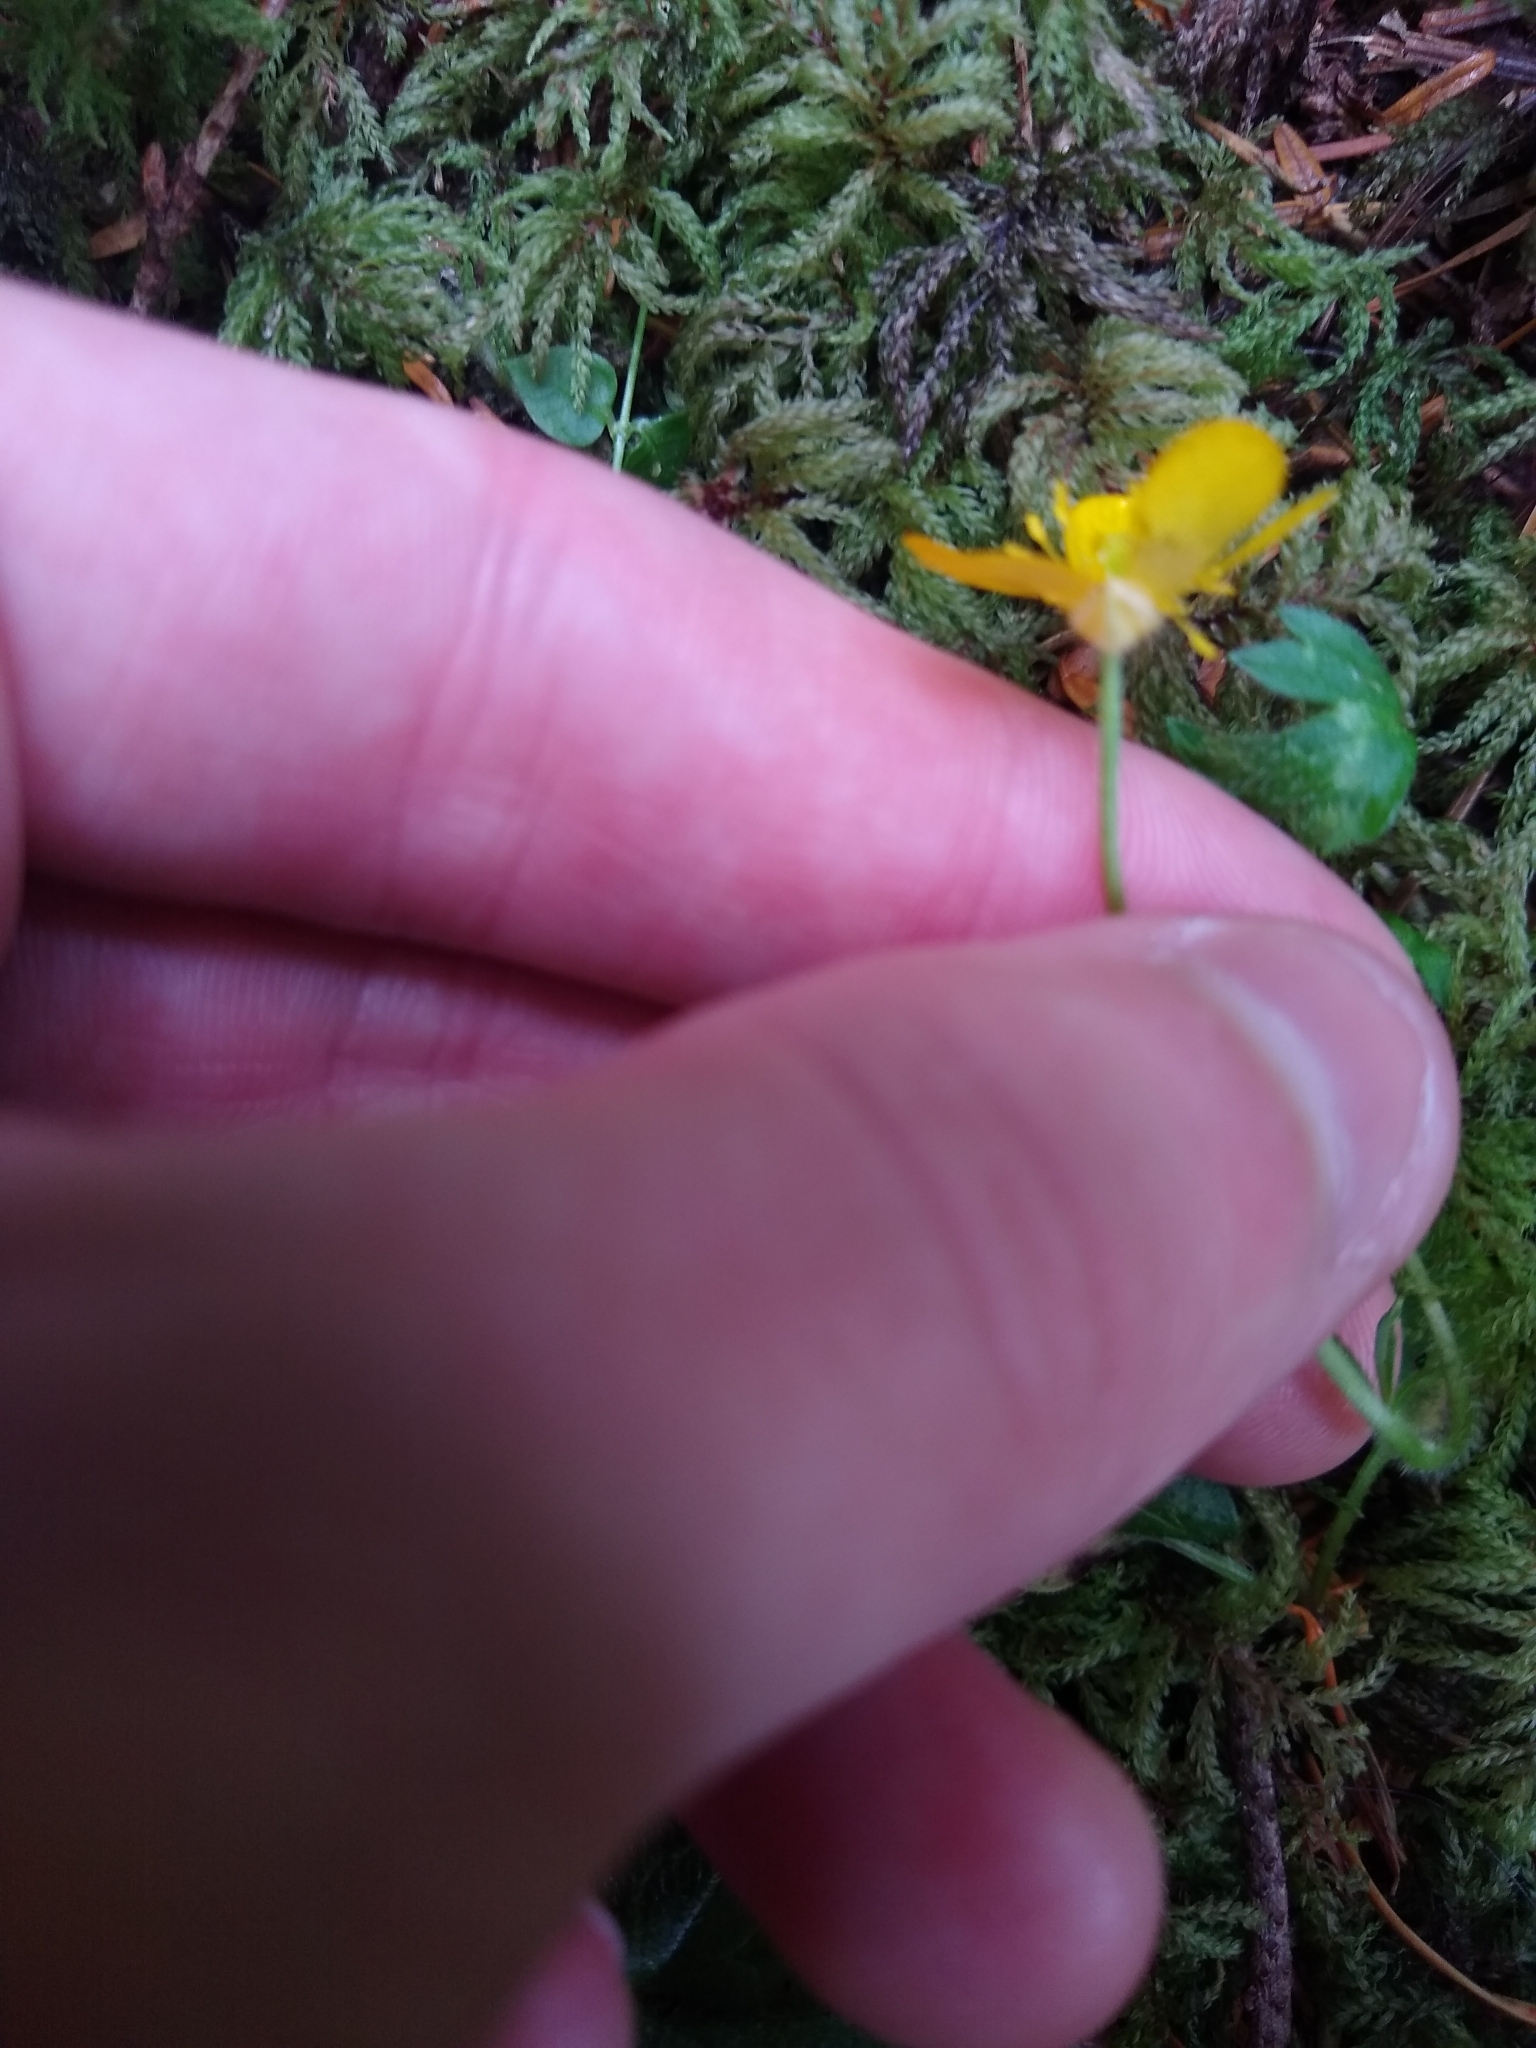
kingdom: Plantae
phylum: Tracheophyta
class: Magnoliopsida
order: Ranunculales
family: Ranunculaceae
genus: Ranunculus
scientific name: Ranunculus repens
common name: Creeping buttercup
